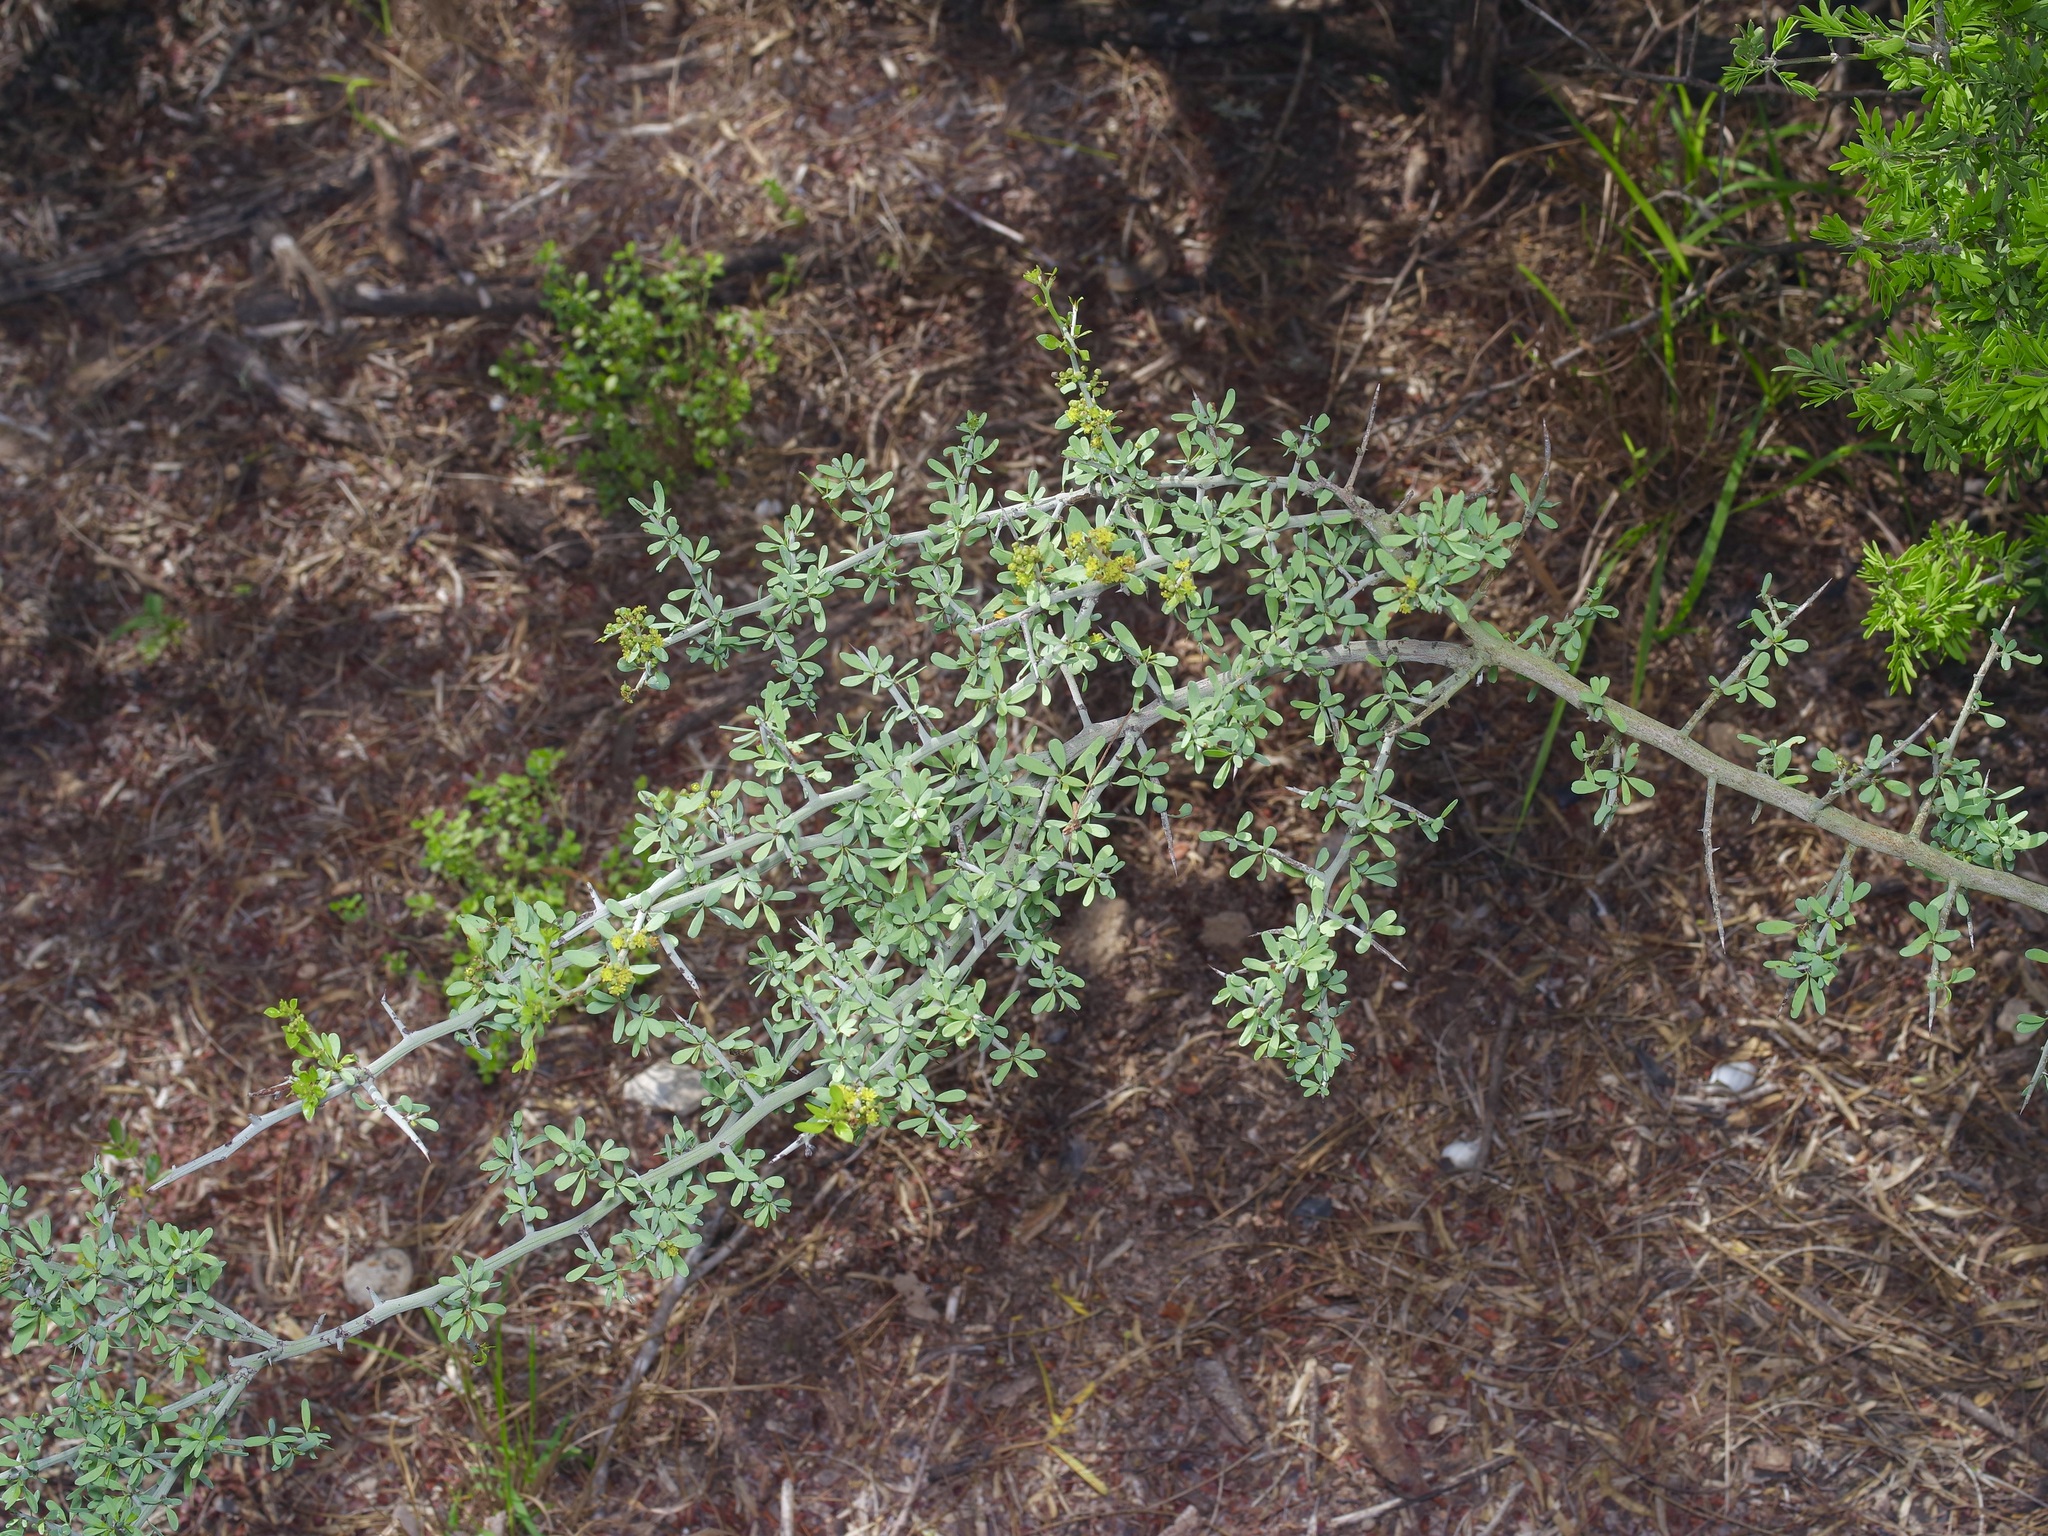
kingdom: Plantae
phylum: Tracheophyta
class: Magnoliopsida
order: Rosales
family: Rhamnaceae
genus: Sarcomphalus
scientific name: Sarcomphalus obtusifolius
